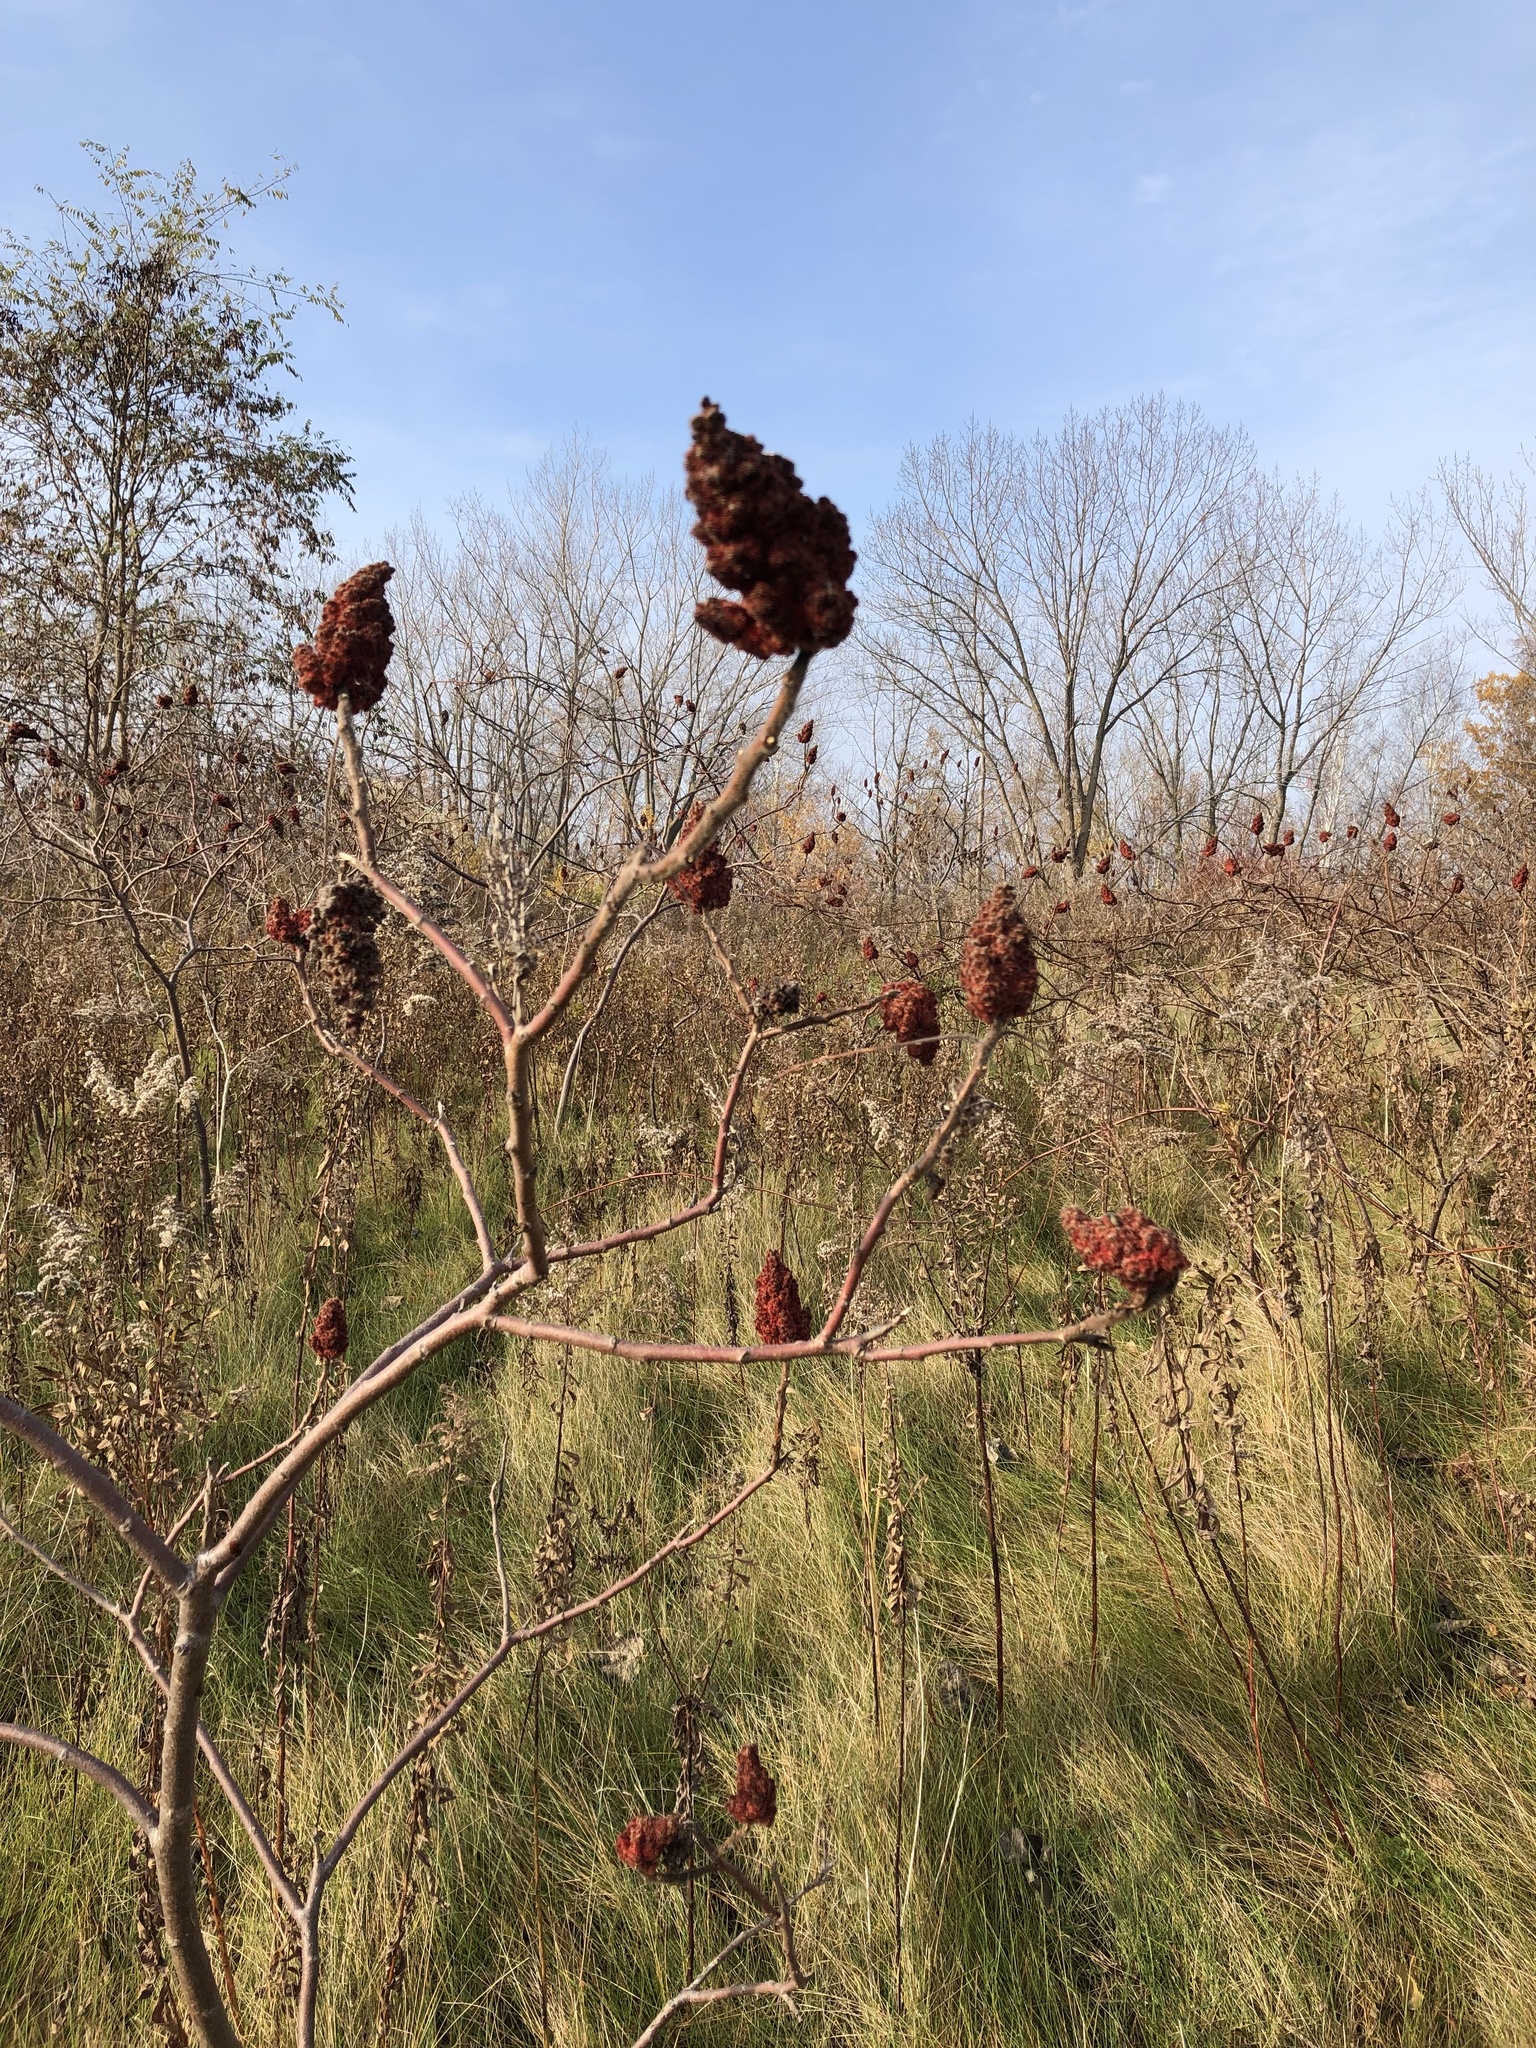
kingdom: Plantae
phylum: Tracheophyta
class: Magnoliopsida
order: Sapindales
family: Anacardiaceae
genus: Rhus
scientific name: Rhus typhina
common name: Staghorn sumac
